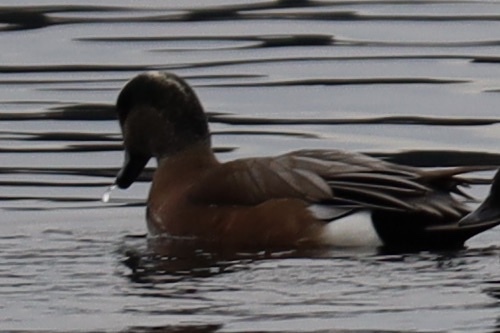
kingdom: Animalia
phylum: Chordata
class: Aves
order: Anseriformes
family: Anatidae
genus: Mareca
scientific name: Mareca americana
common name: American wigeon
